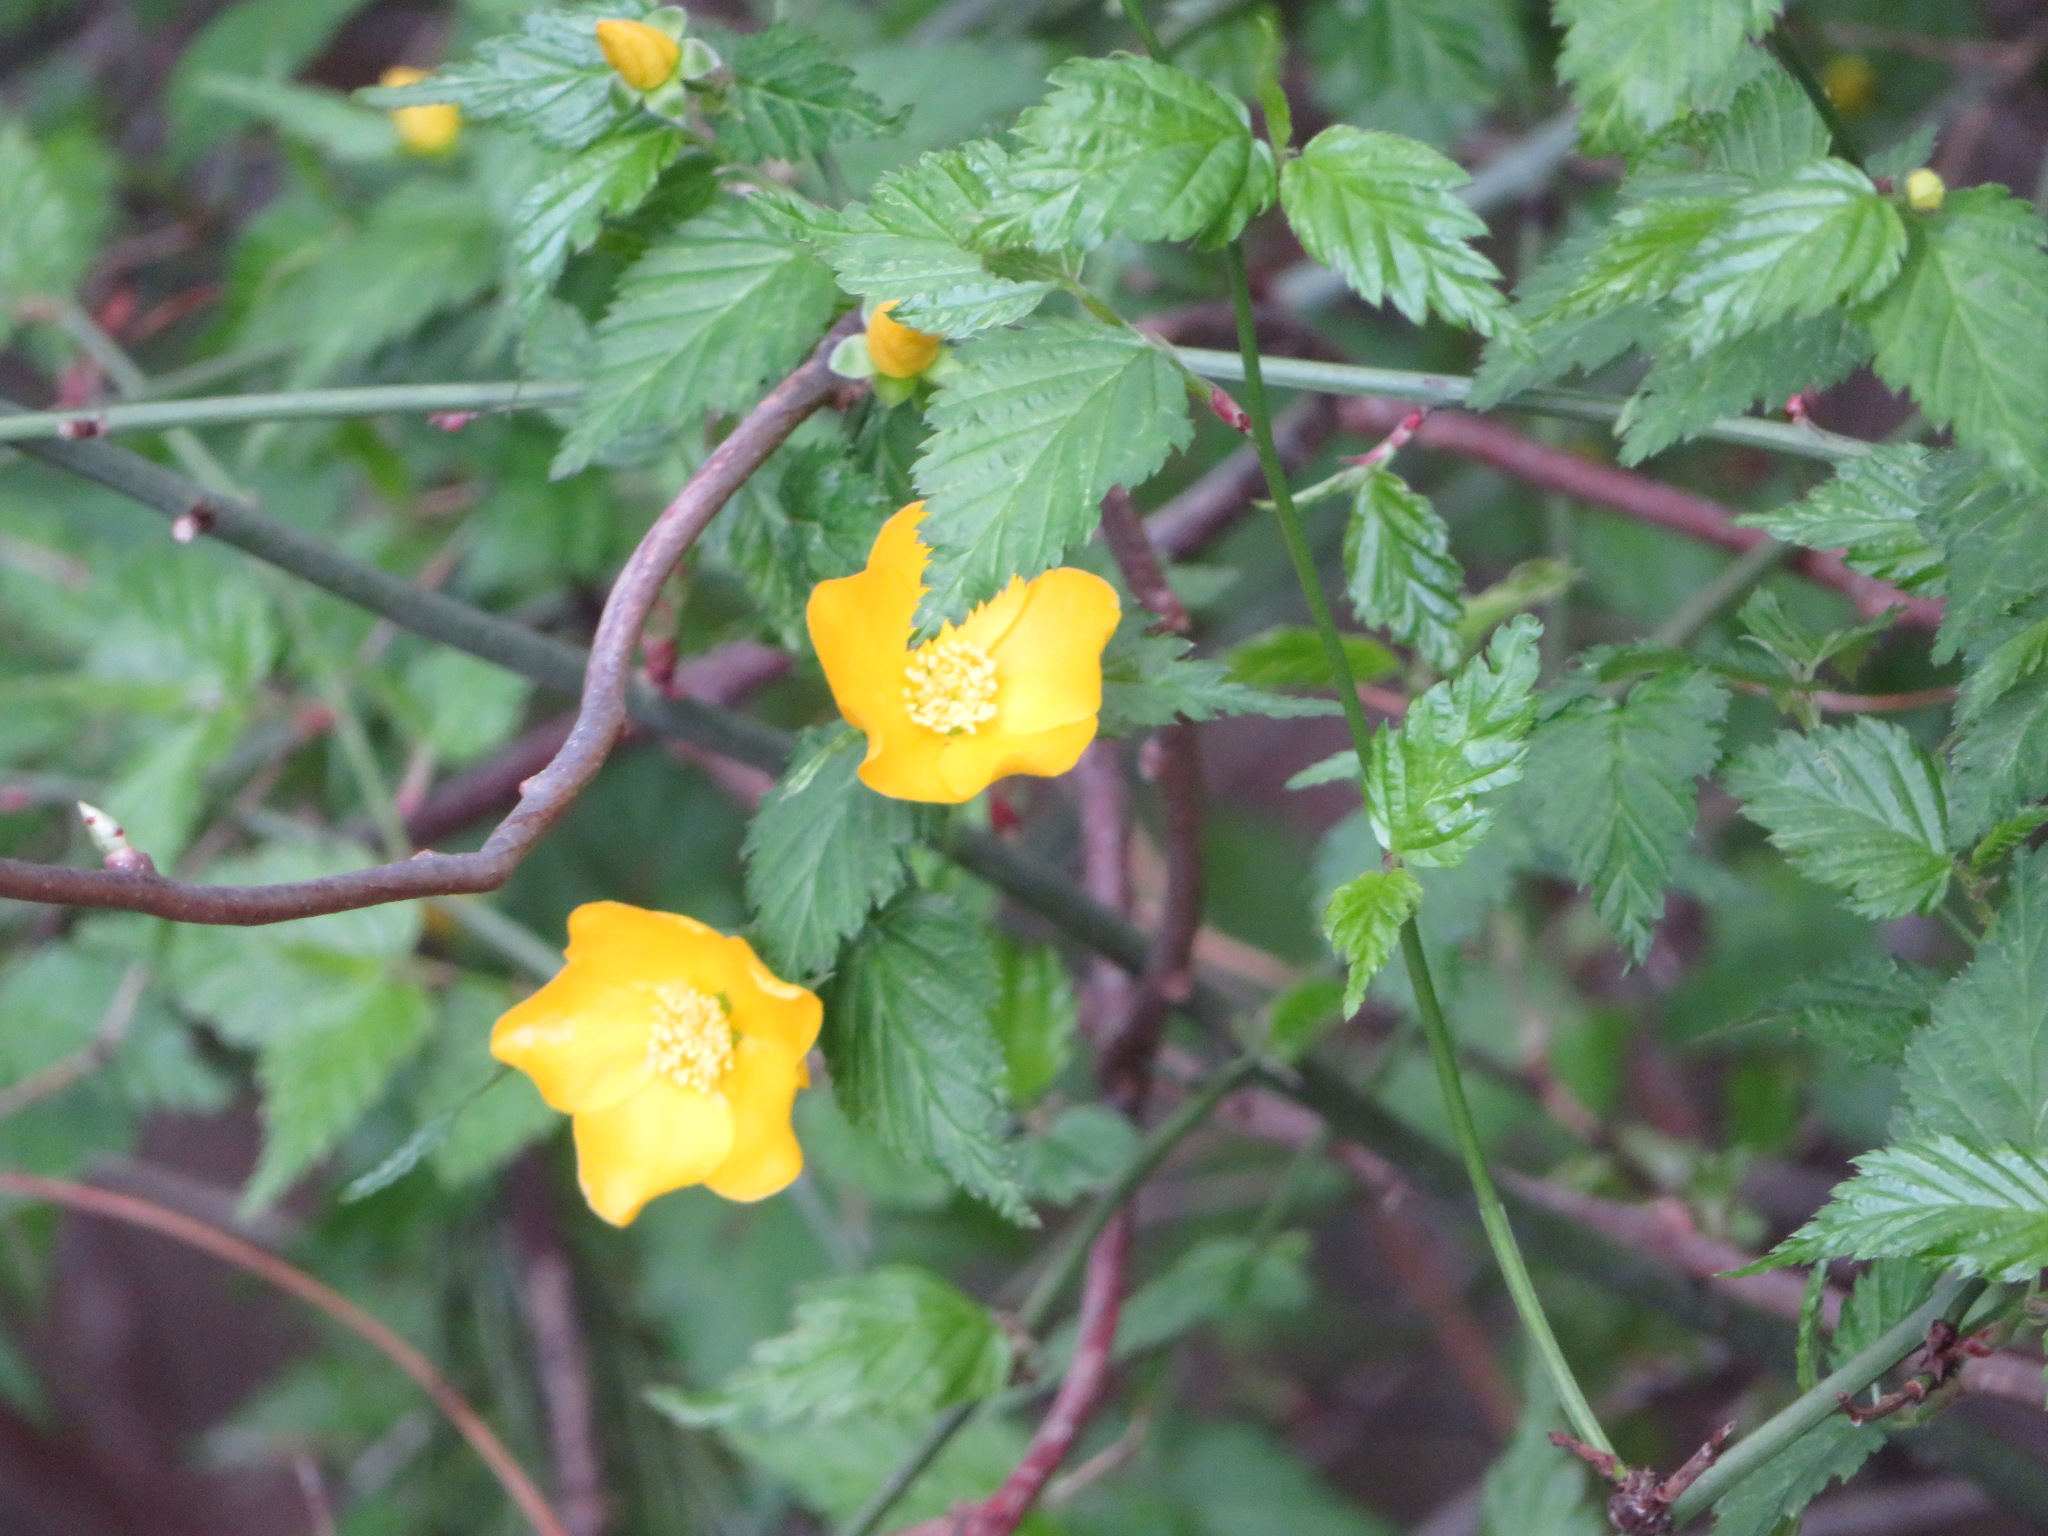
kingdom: Plantae
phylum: Tracheophyta
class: Magnoliopsida
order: Rosales
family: Rosaceae
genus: Kerria
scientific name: Kerria japonica
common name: Japanese kerria
